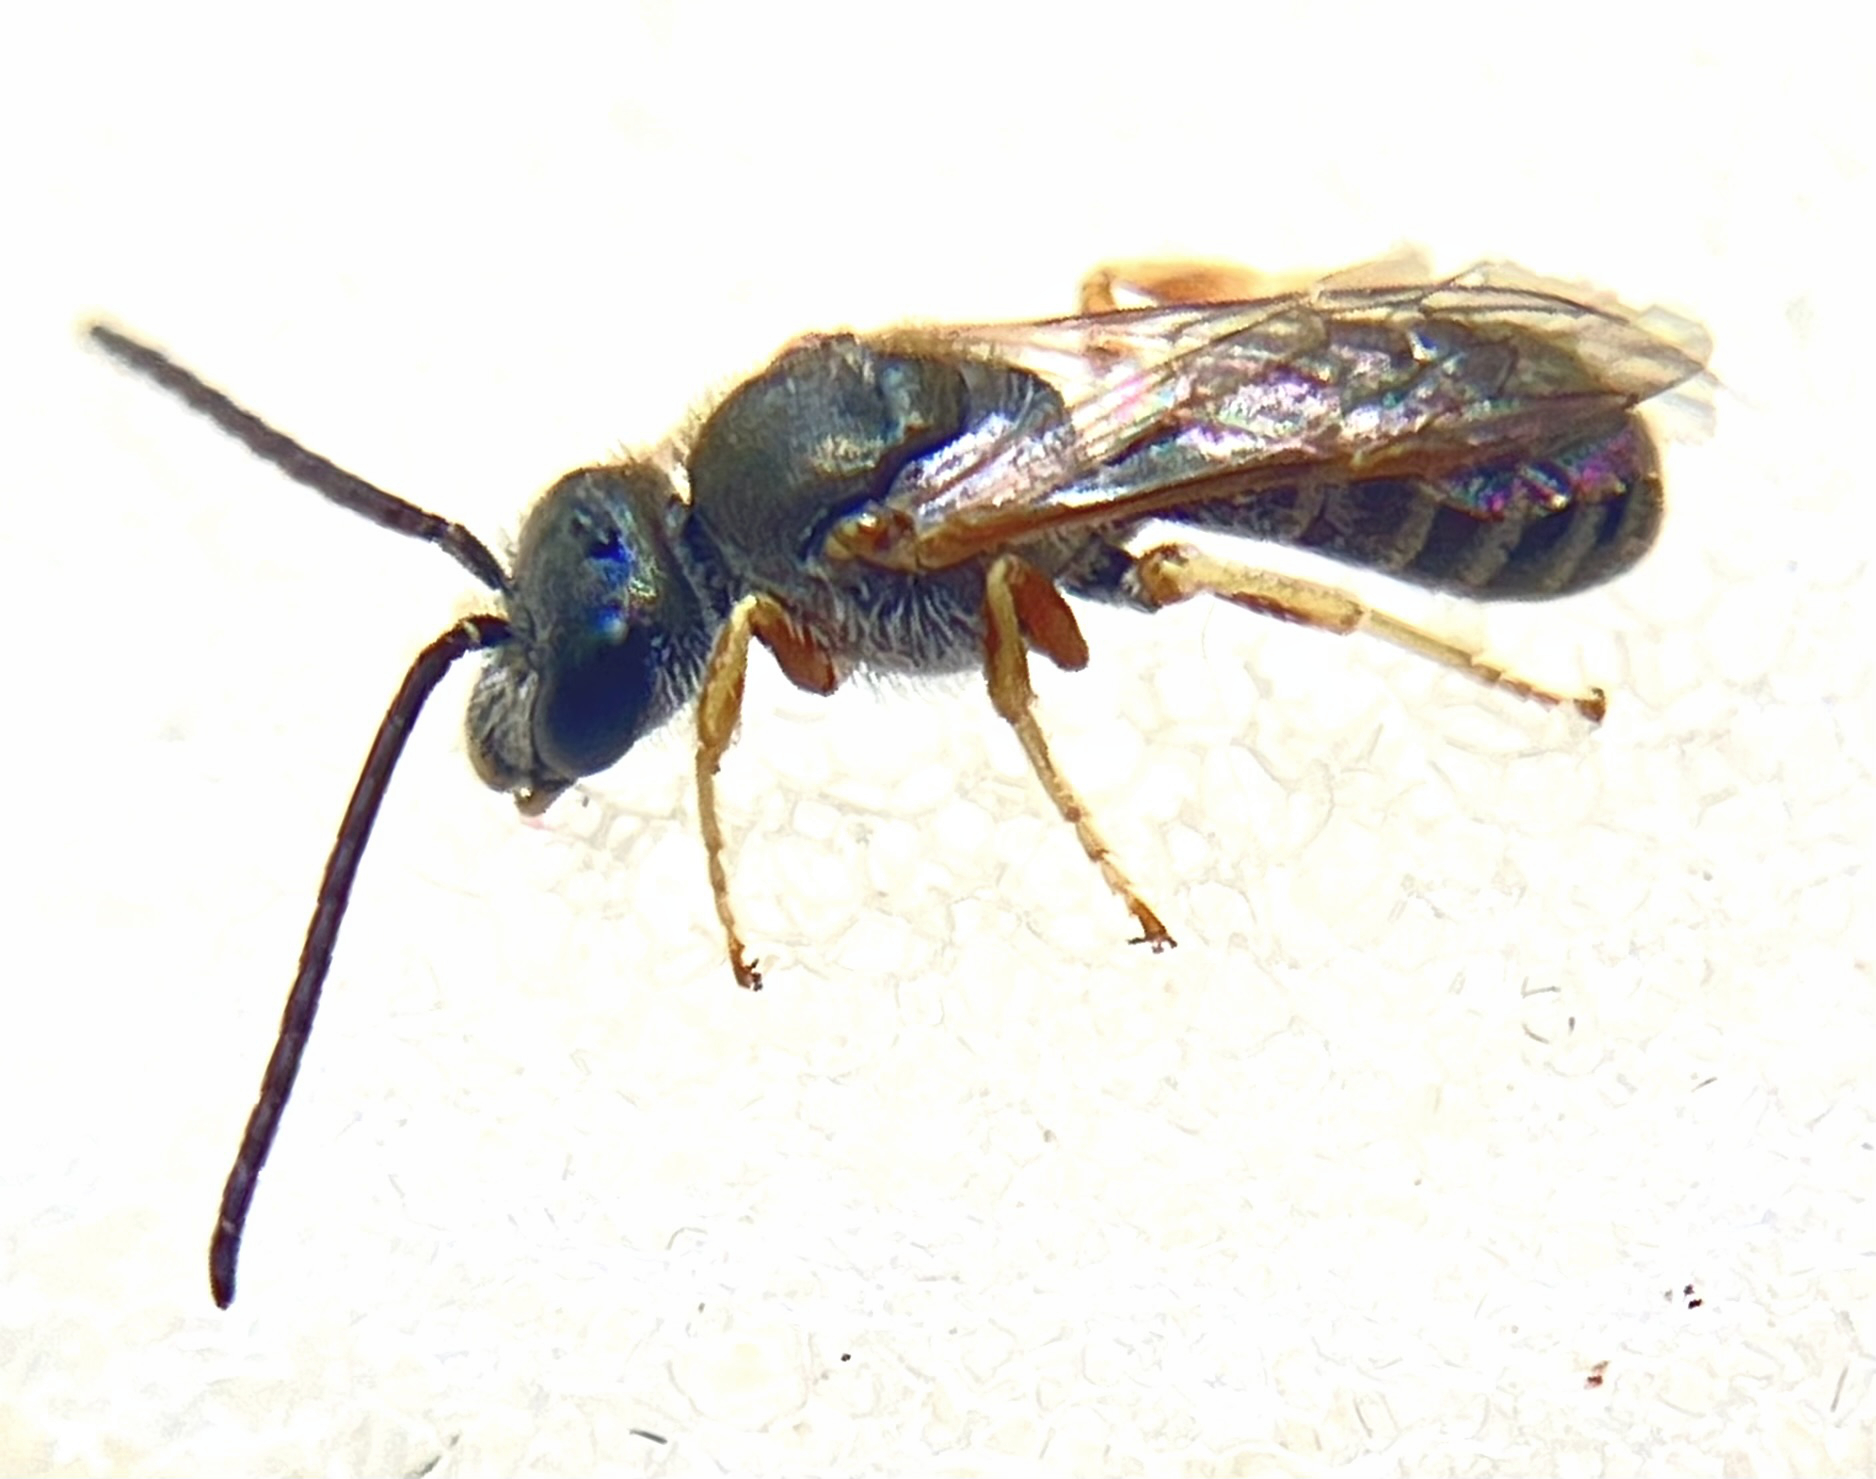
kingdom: Animalia
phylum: Arthropoda
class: Insecta
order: Hymenoptera
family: Halictidae
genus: Halictus
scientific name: Halictus confusus
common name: Southern bronze furrow bee
